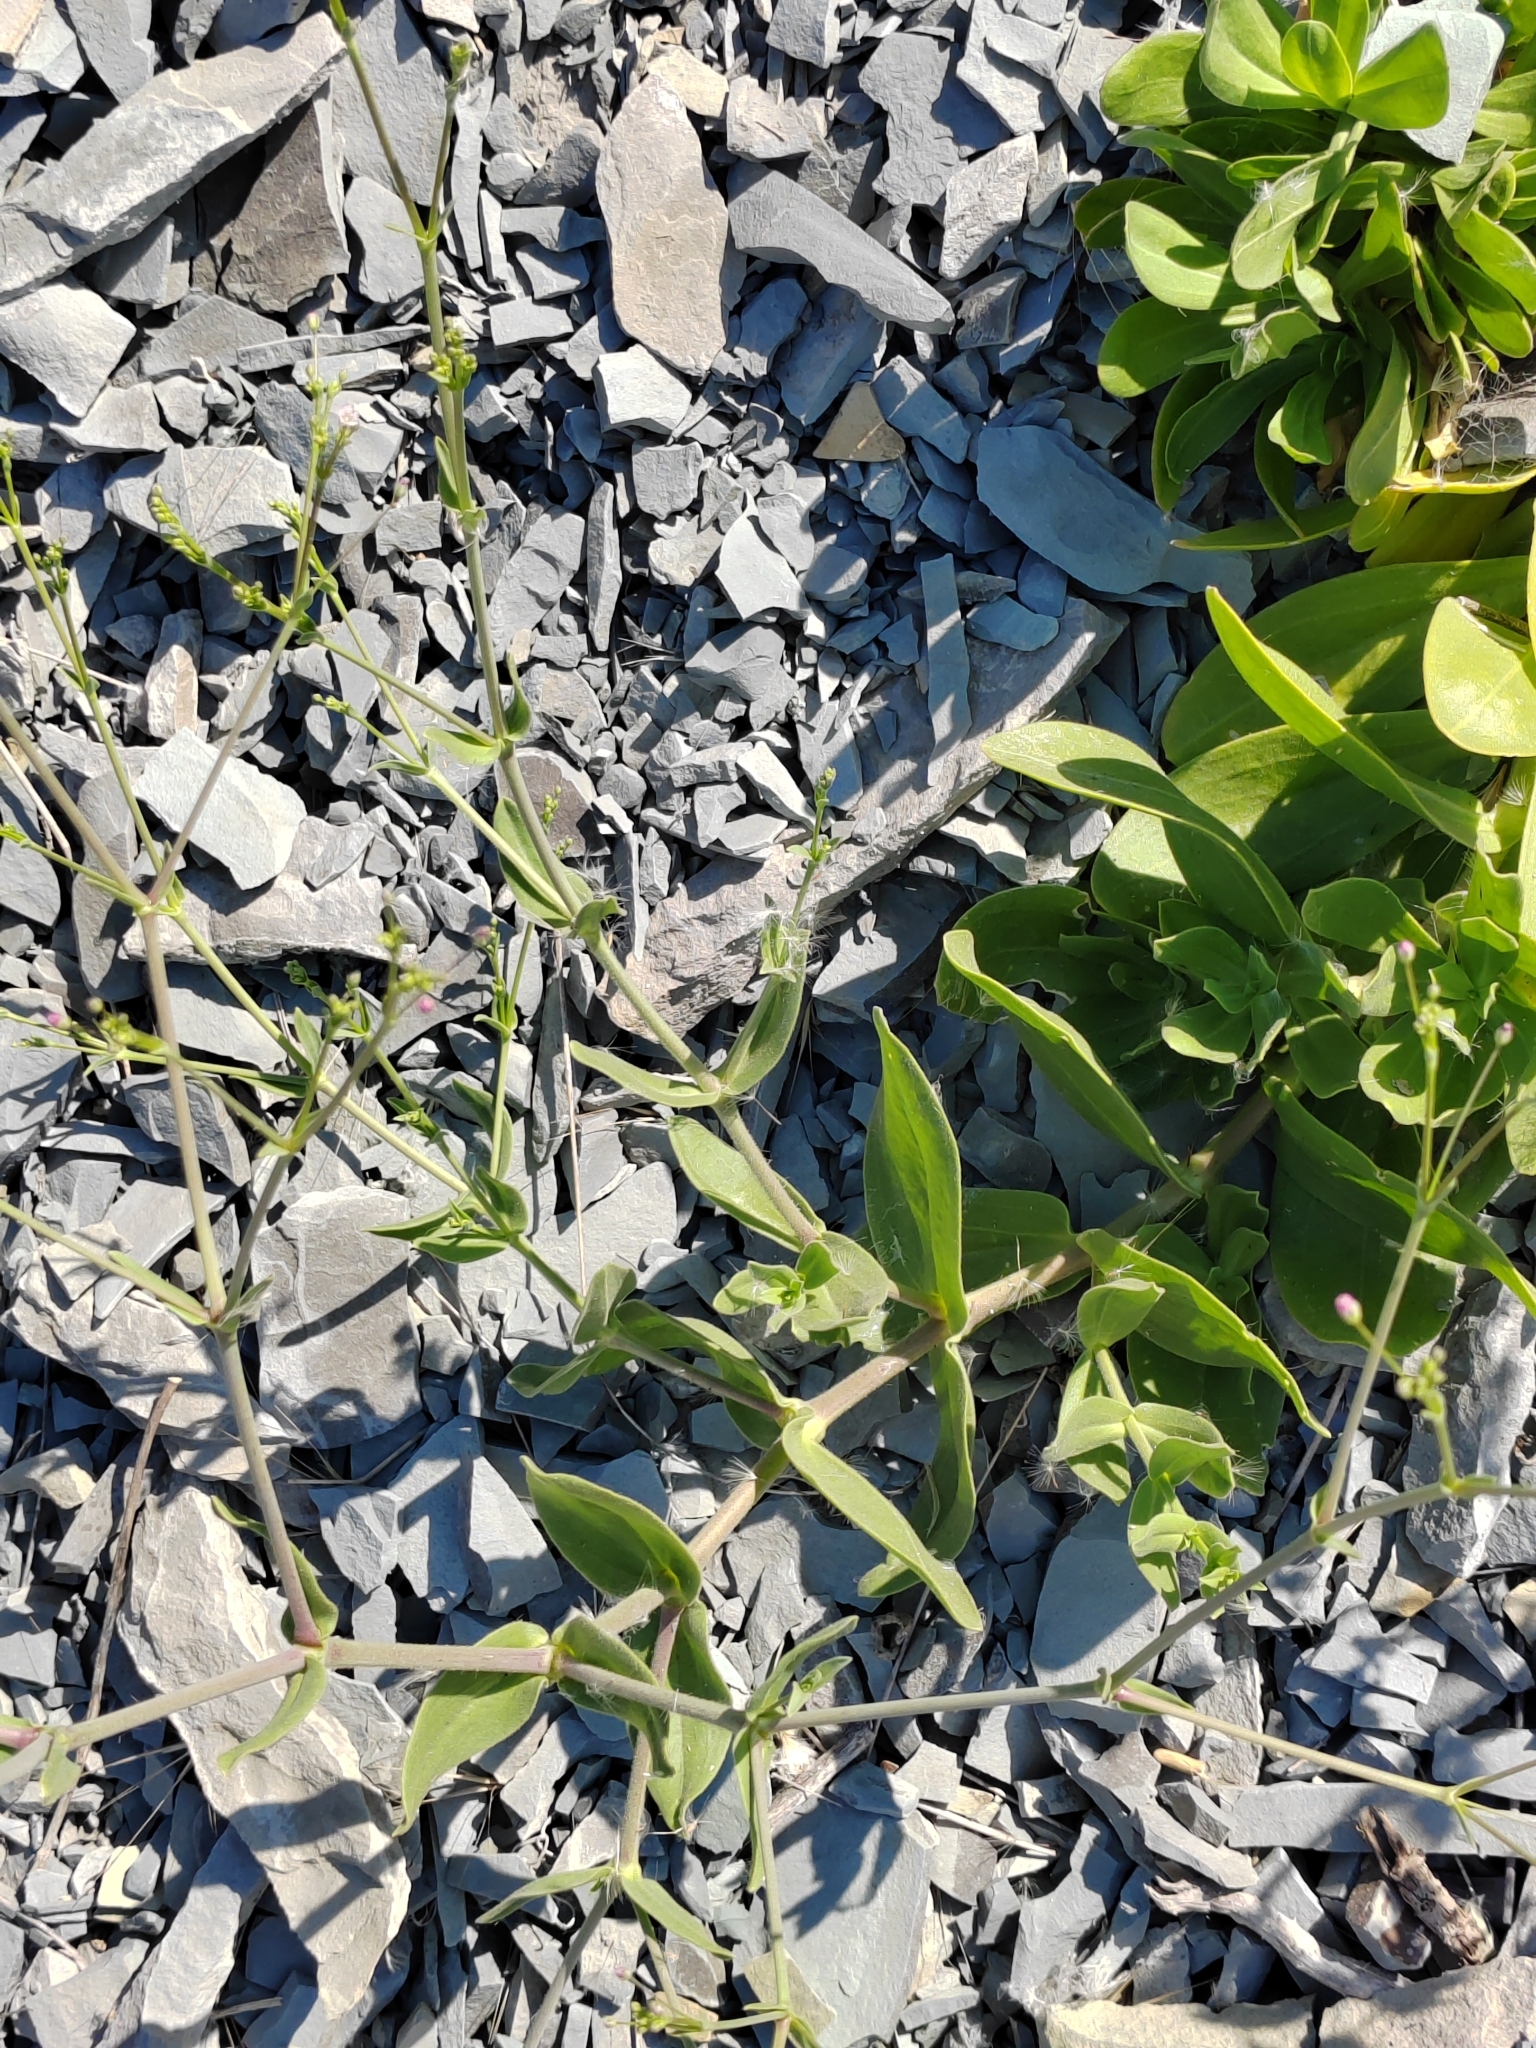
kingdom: Plantae
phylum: Tracheophyta
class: Magnoliopsida
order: Caryophyllales
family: Caryophyllaceae
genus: Gypsophila
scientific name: Gypsophila perfoliata
